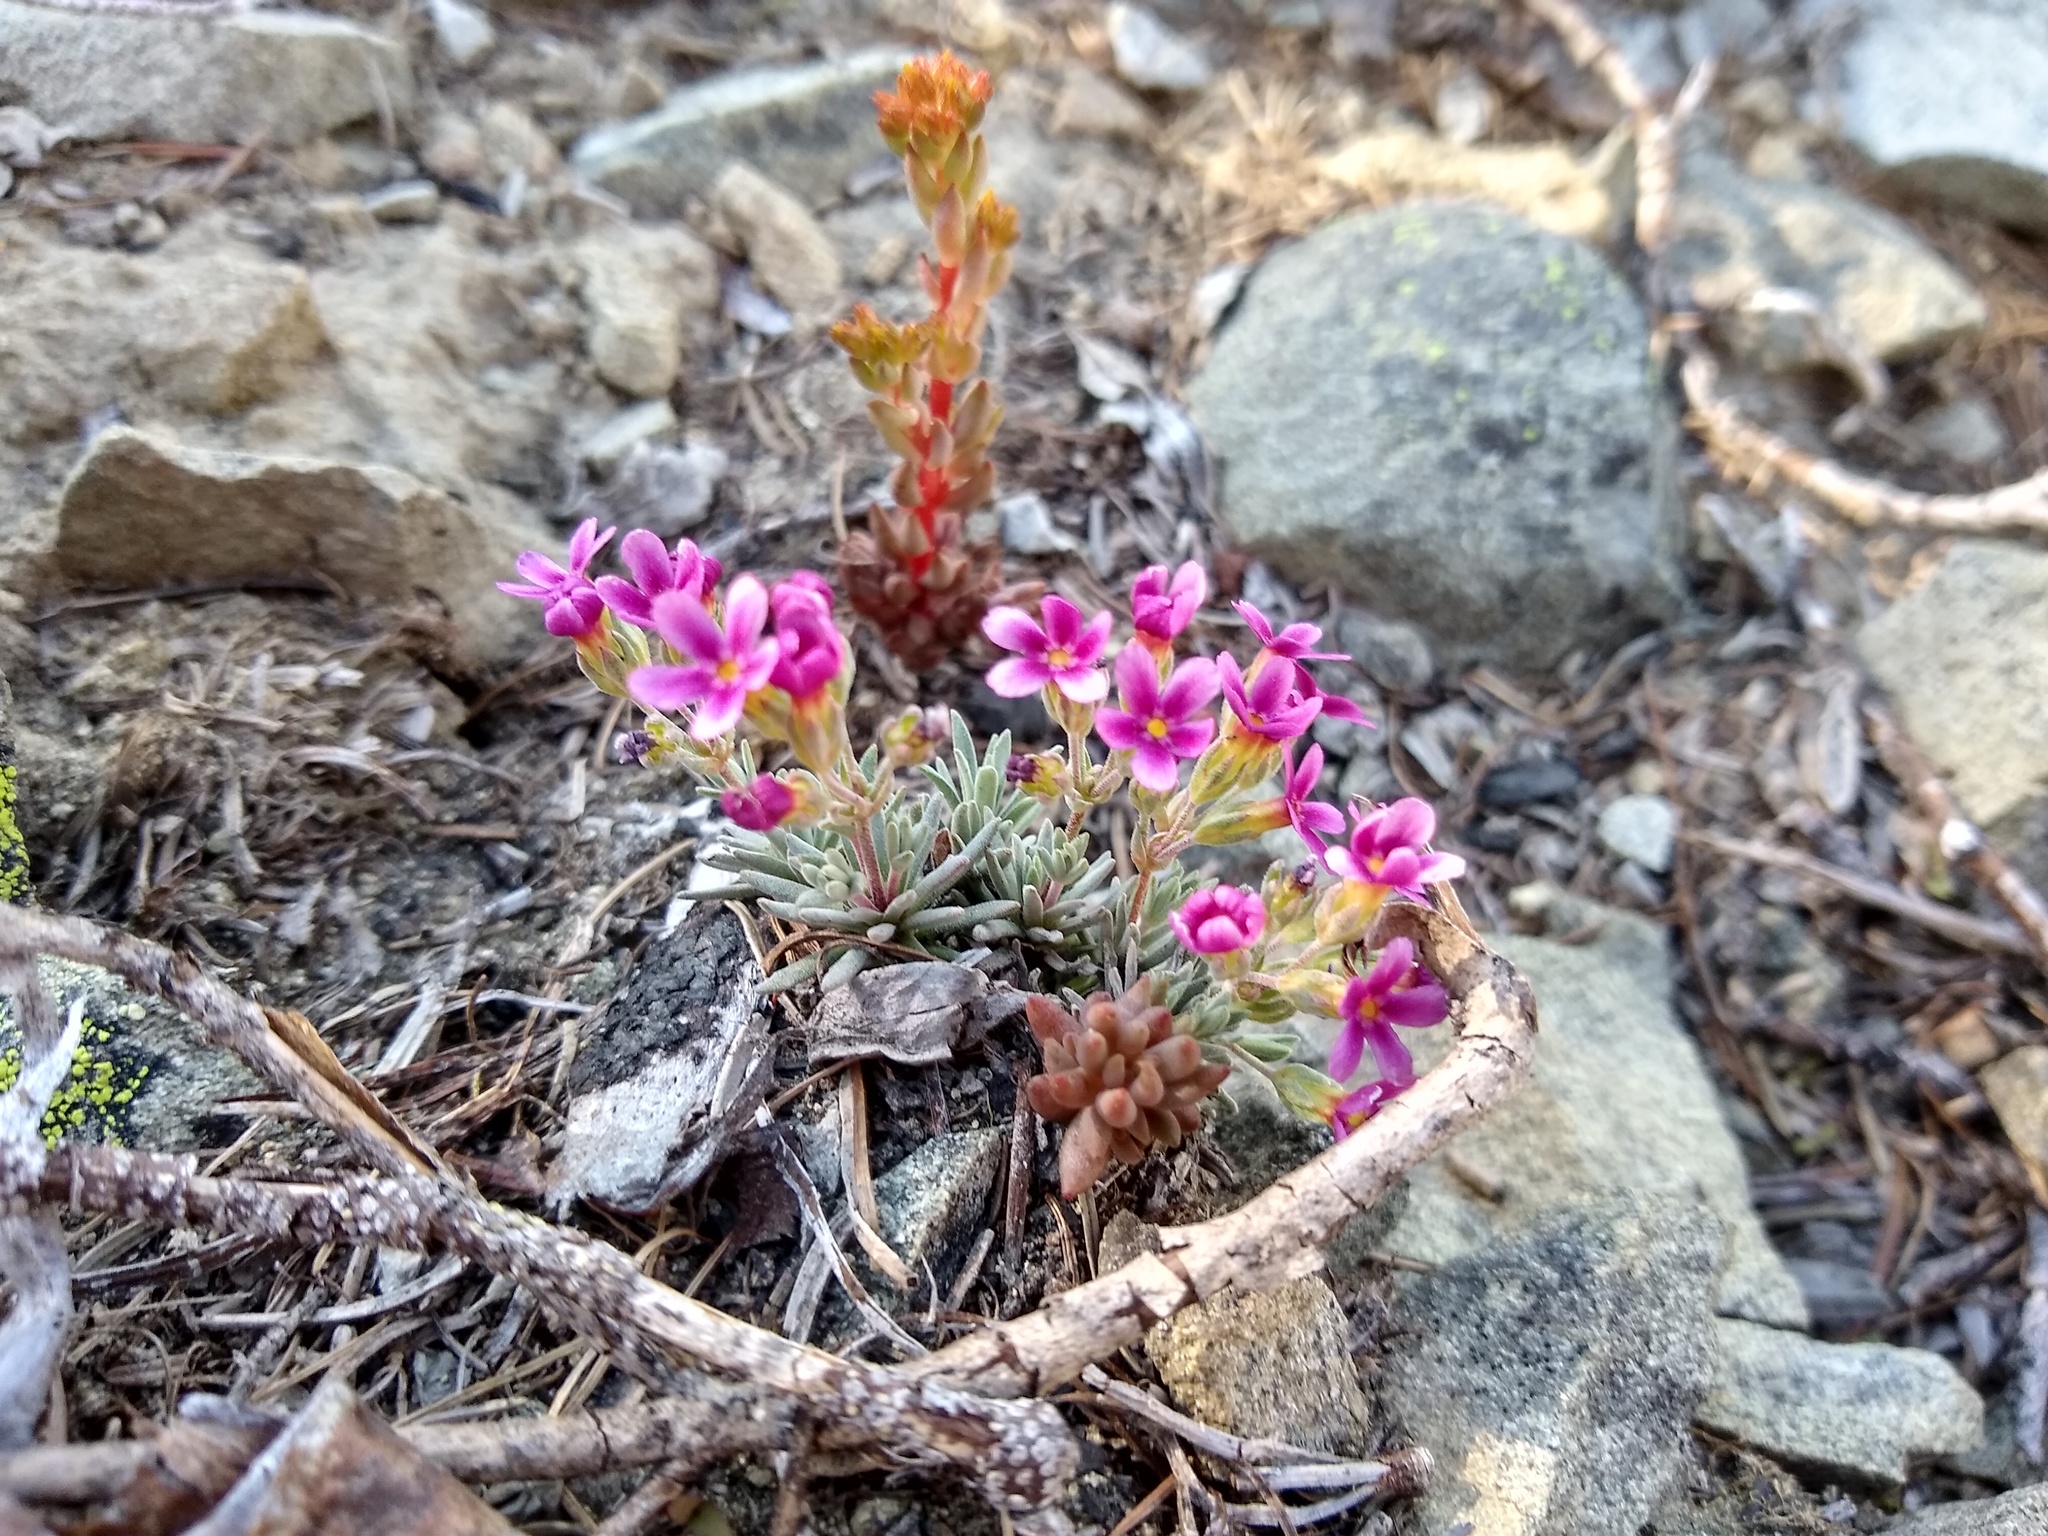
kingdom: Plantae
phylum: Tracheophyta
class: Magnoliopsida
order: Ericales
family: Primulaceae
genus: Androsace
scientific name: Androsace nivalis
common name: Snow dwarf-primrose
